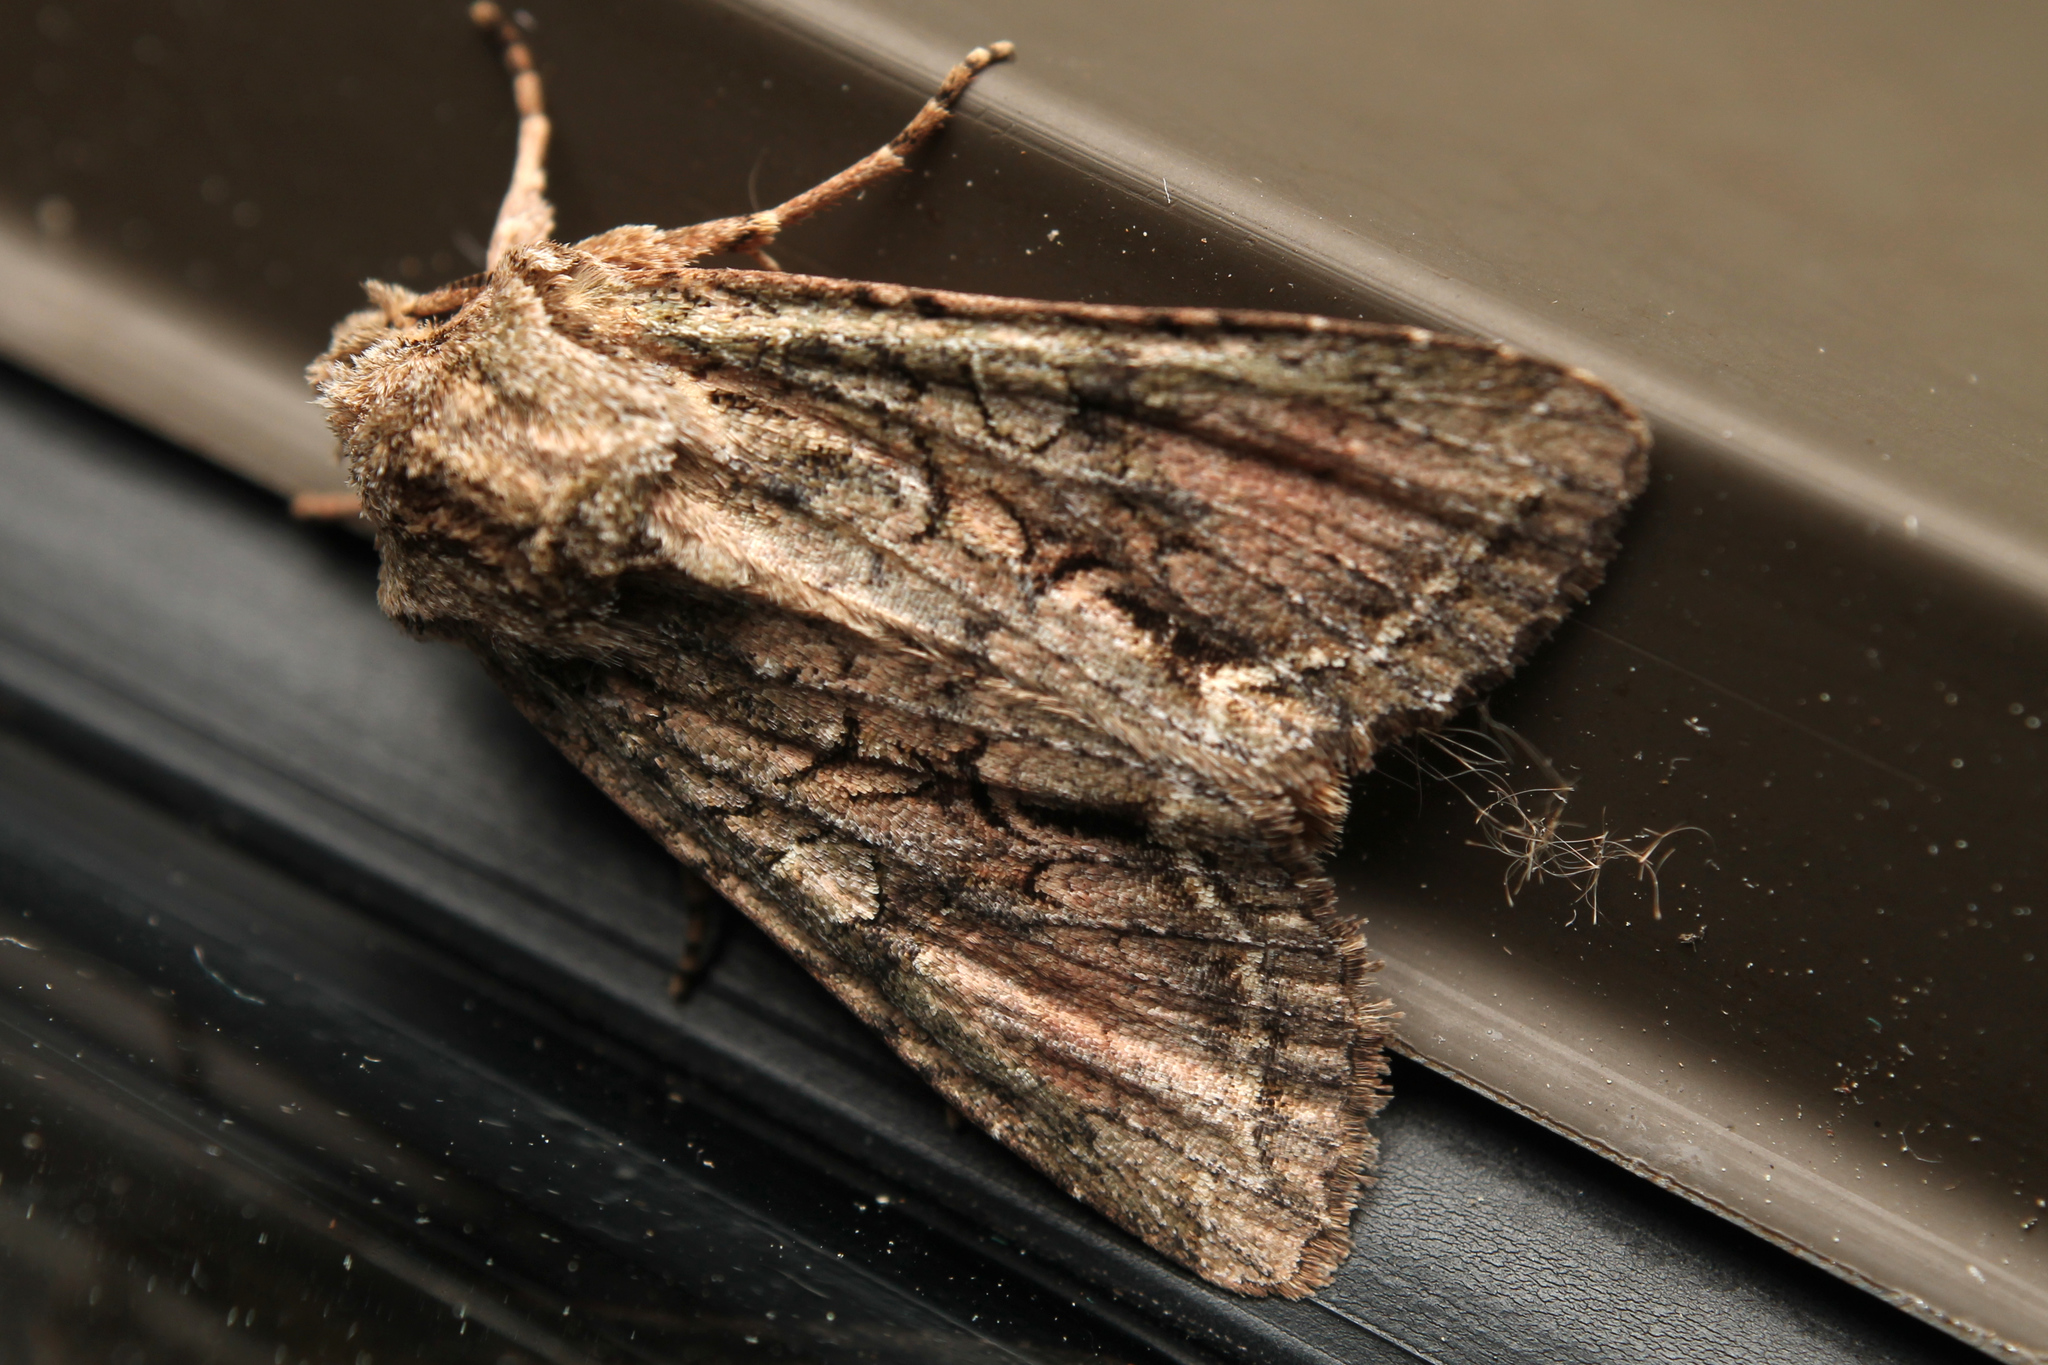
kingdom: Animalia
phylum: Arthropoda
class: Insecta
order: Lepidoptera
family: Noctuidae
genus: Ichneutica
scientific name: Ichneutica mutans
